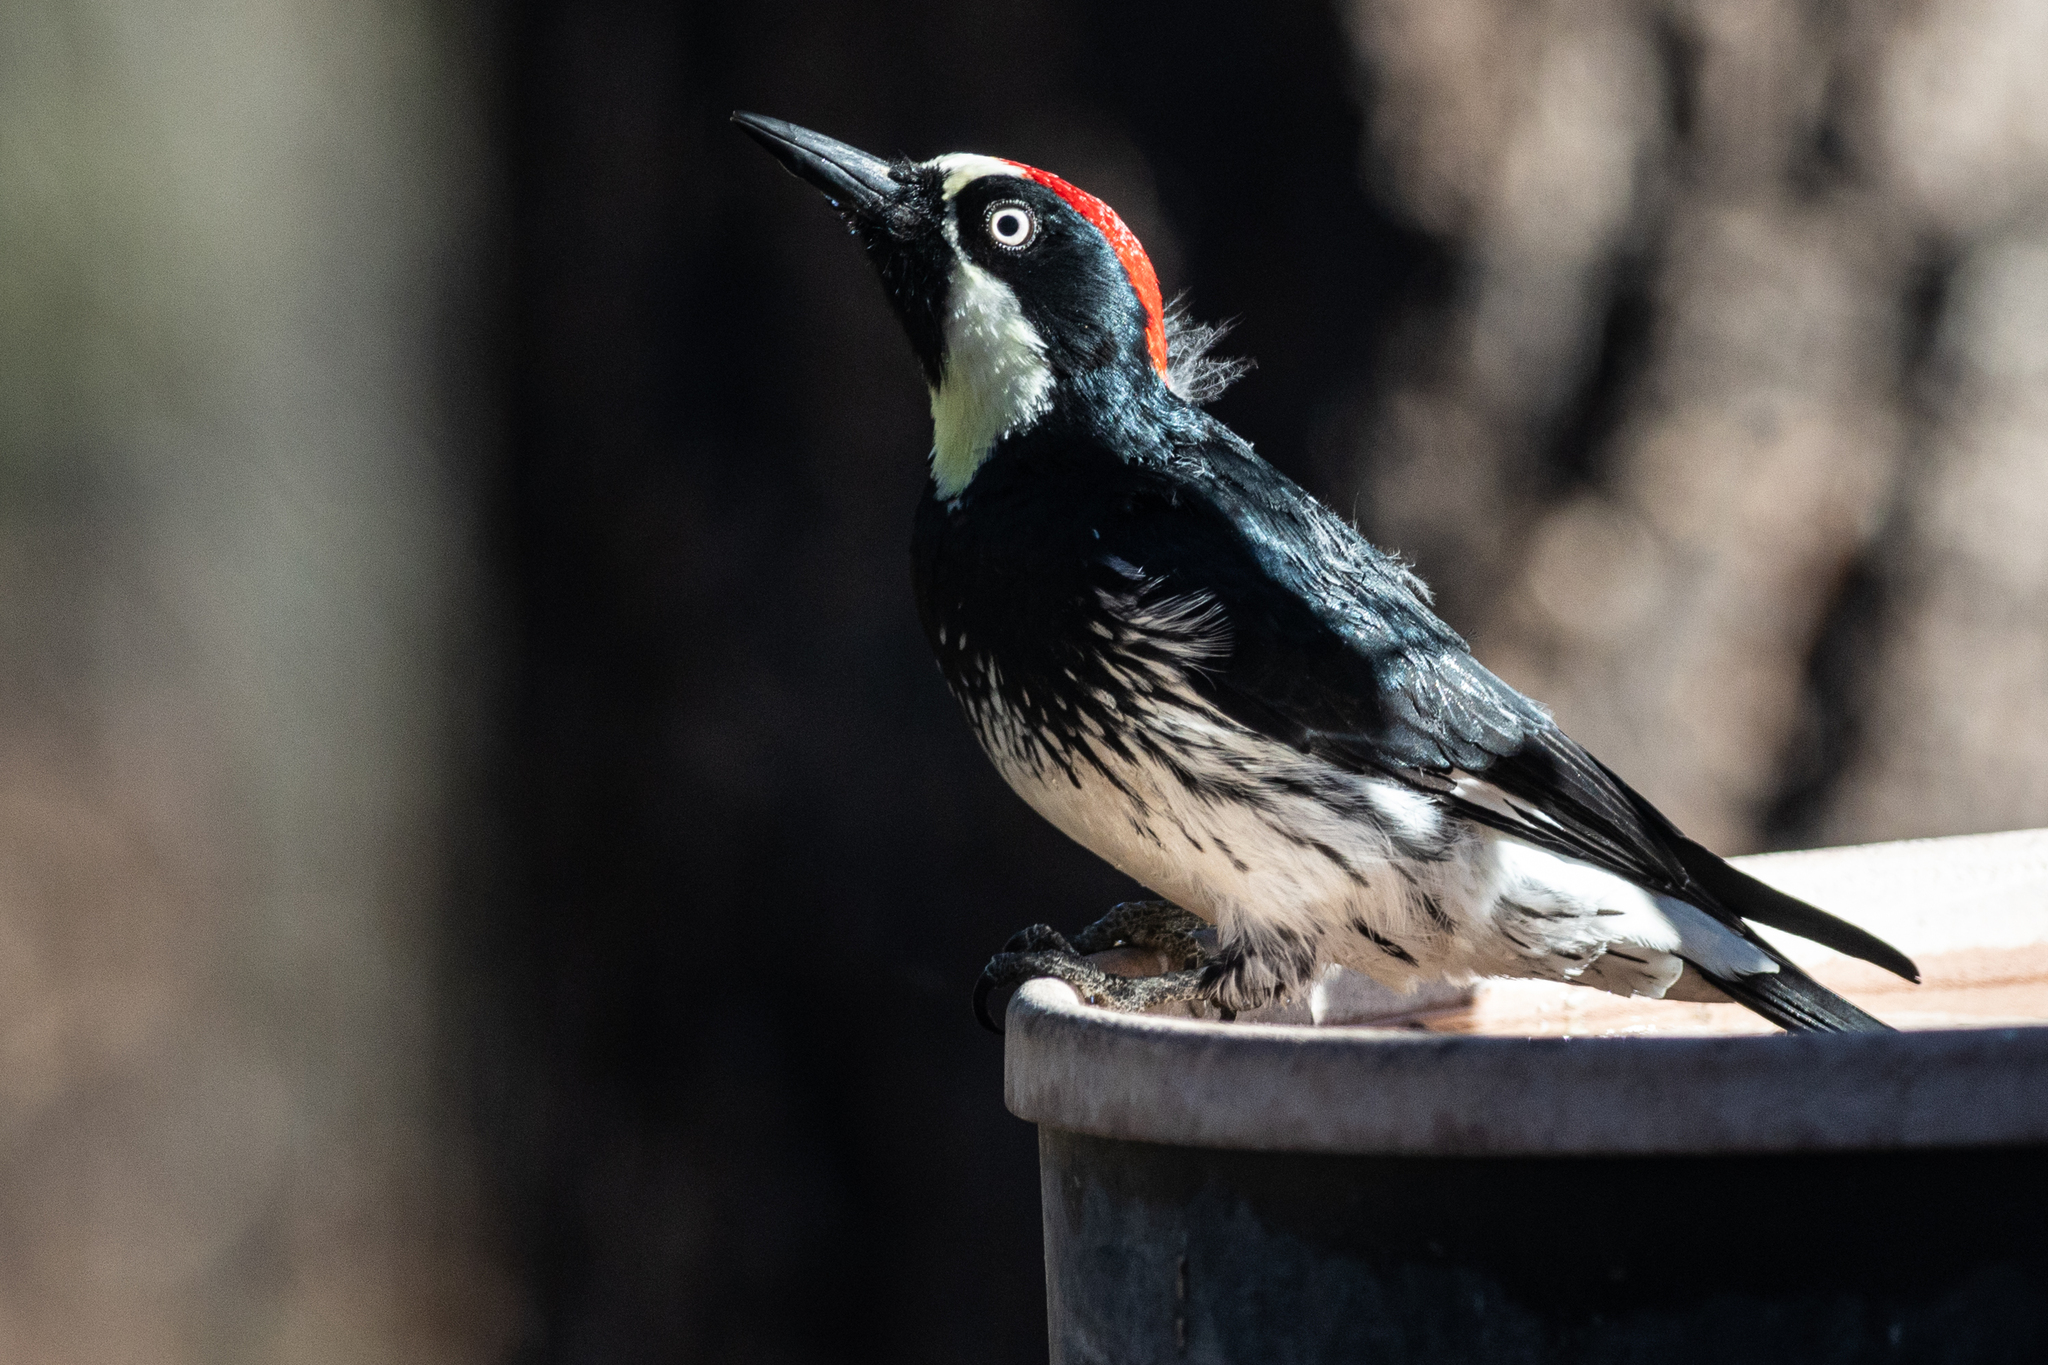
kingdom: Animalia
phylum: Chordata
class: Aves
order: Piciformes
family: Picidae
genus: Melanerpes
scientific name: Melanerpes formicivorus
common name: Acorn woodpecker
